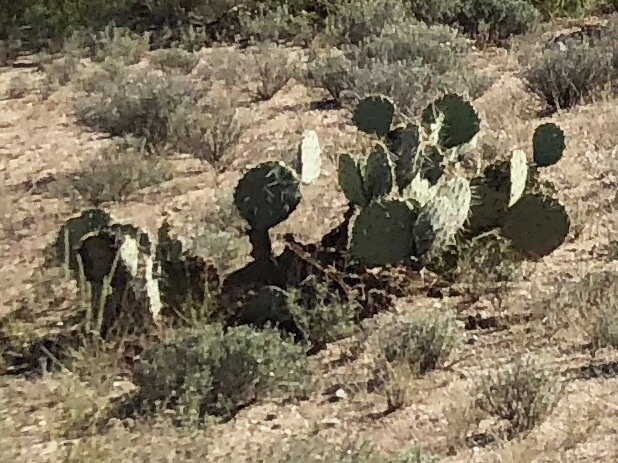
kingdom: Plantae
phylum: Tracheophyta
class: Magnoliopsida
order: Caryophyllales
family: Cactaceae
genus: Opuntia
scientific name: Opuntia engelmannii
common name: Cactus-apple
